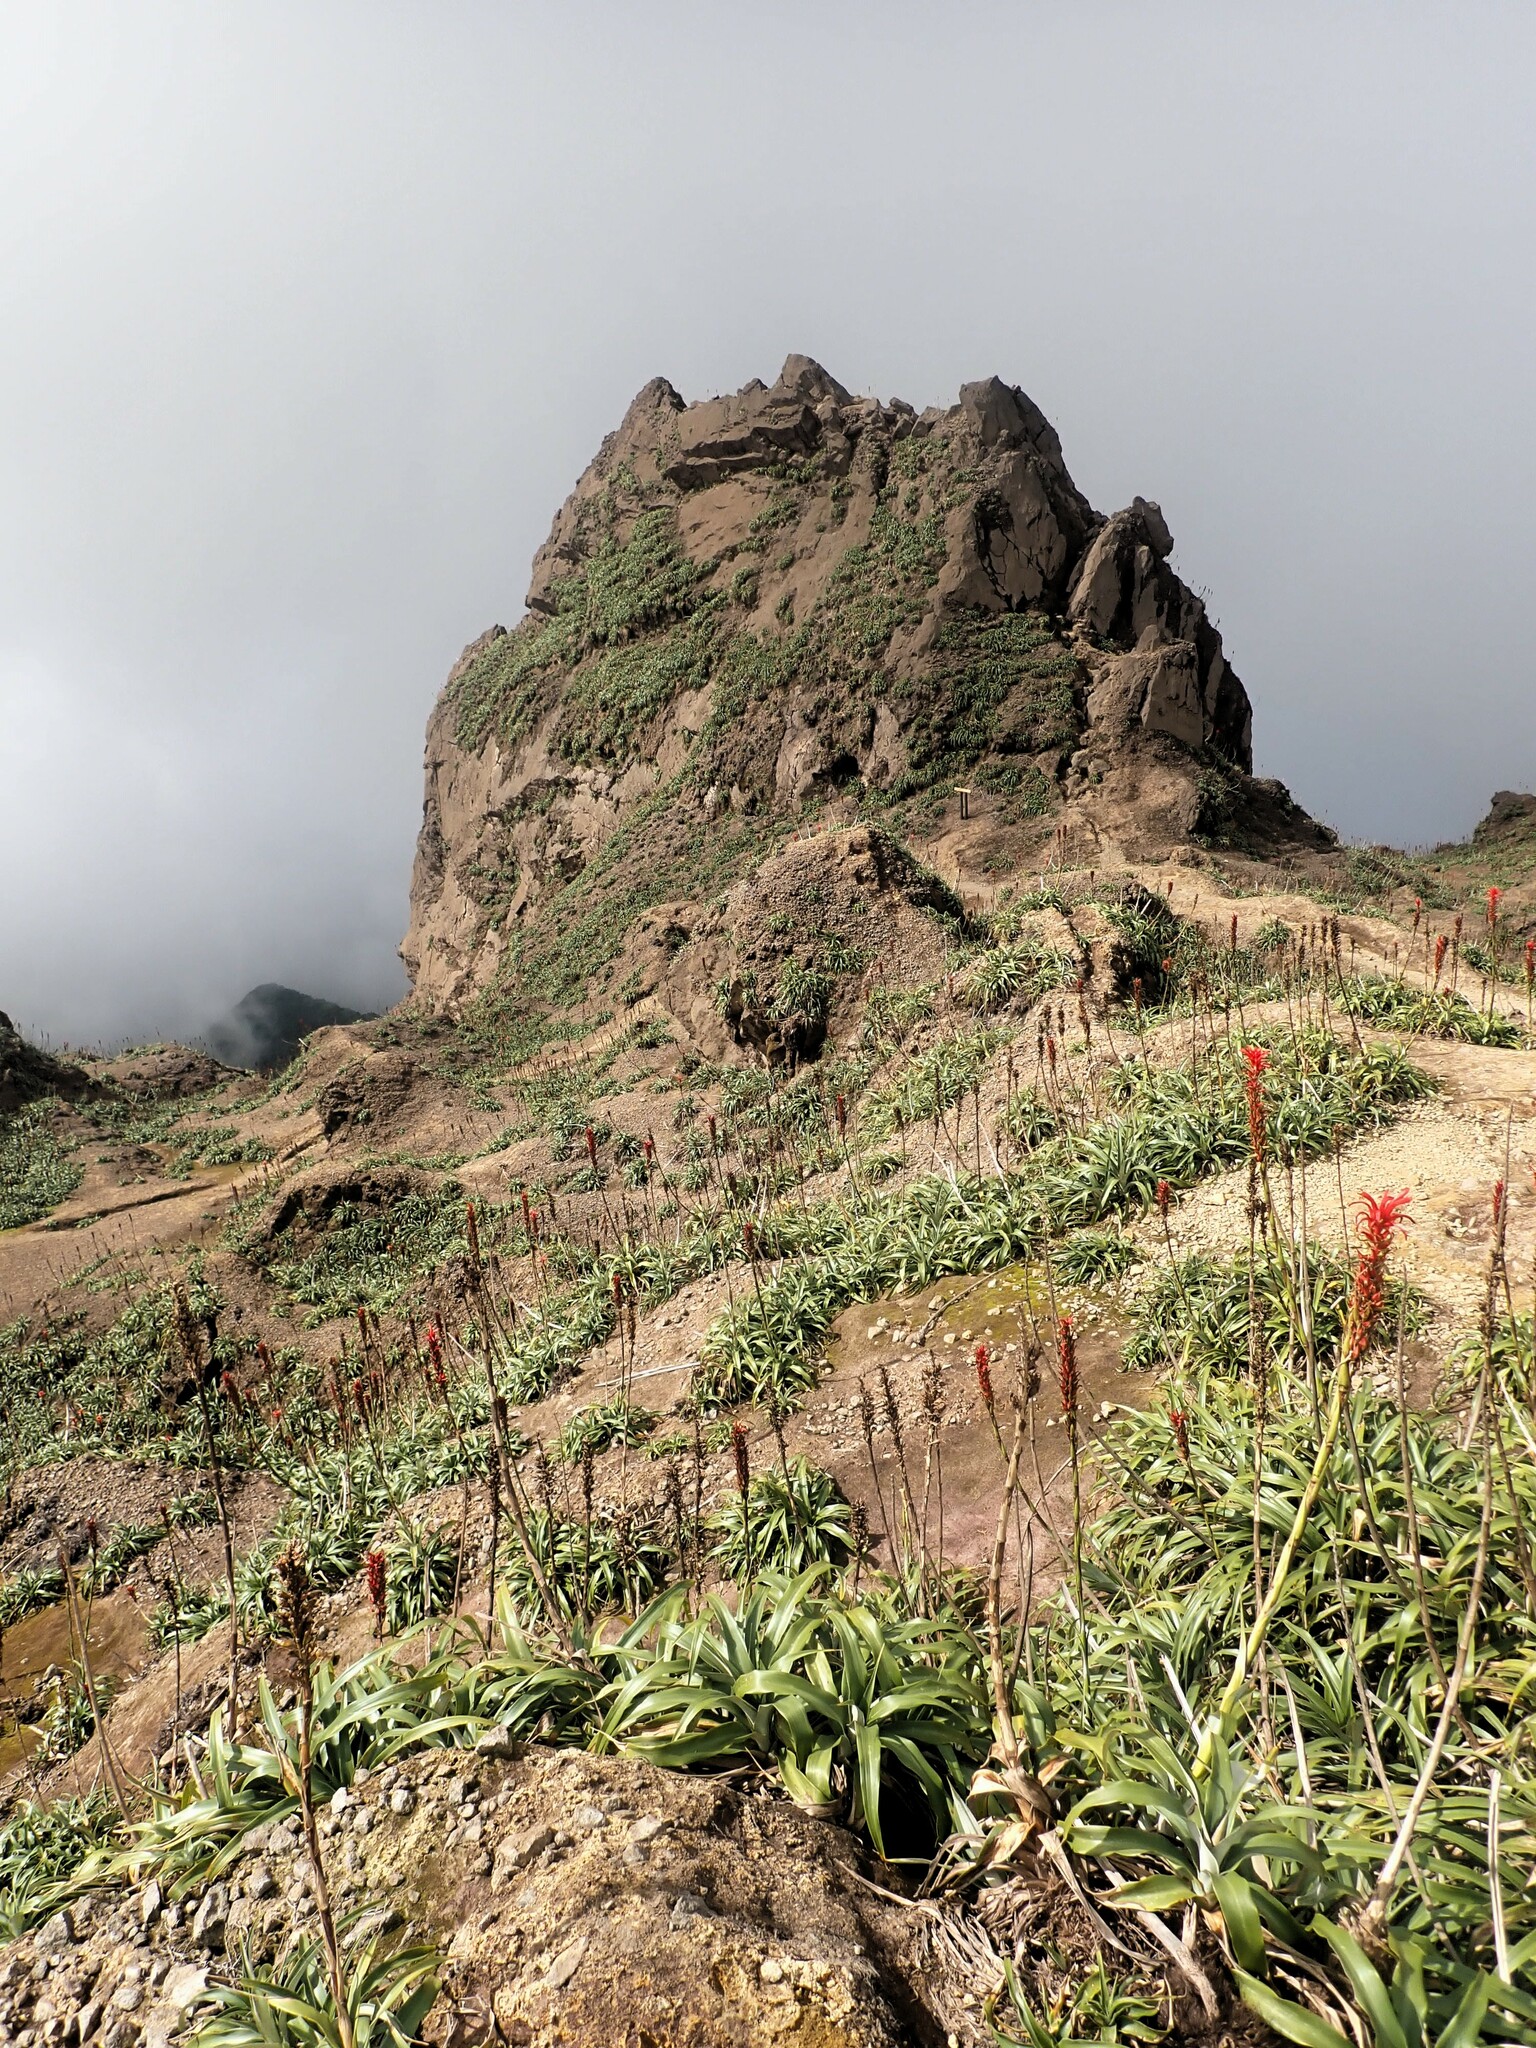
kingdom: Plantae
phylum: Tracheophyta
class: Liliopsida
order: Poales
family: Bromeliaceae
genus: Pitcairnia
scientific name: Pitcairnia bifrons
